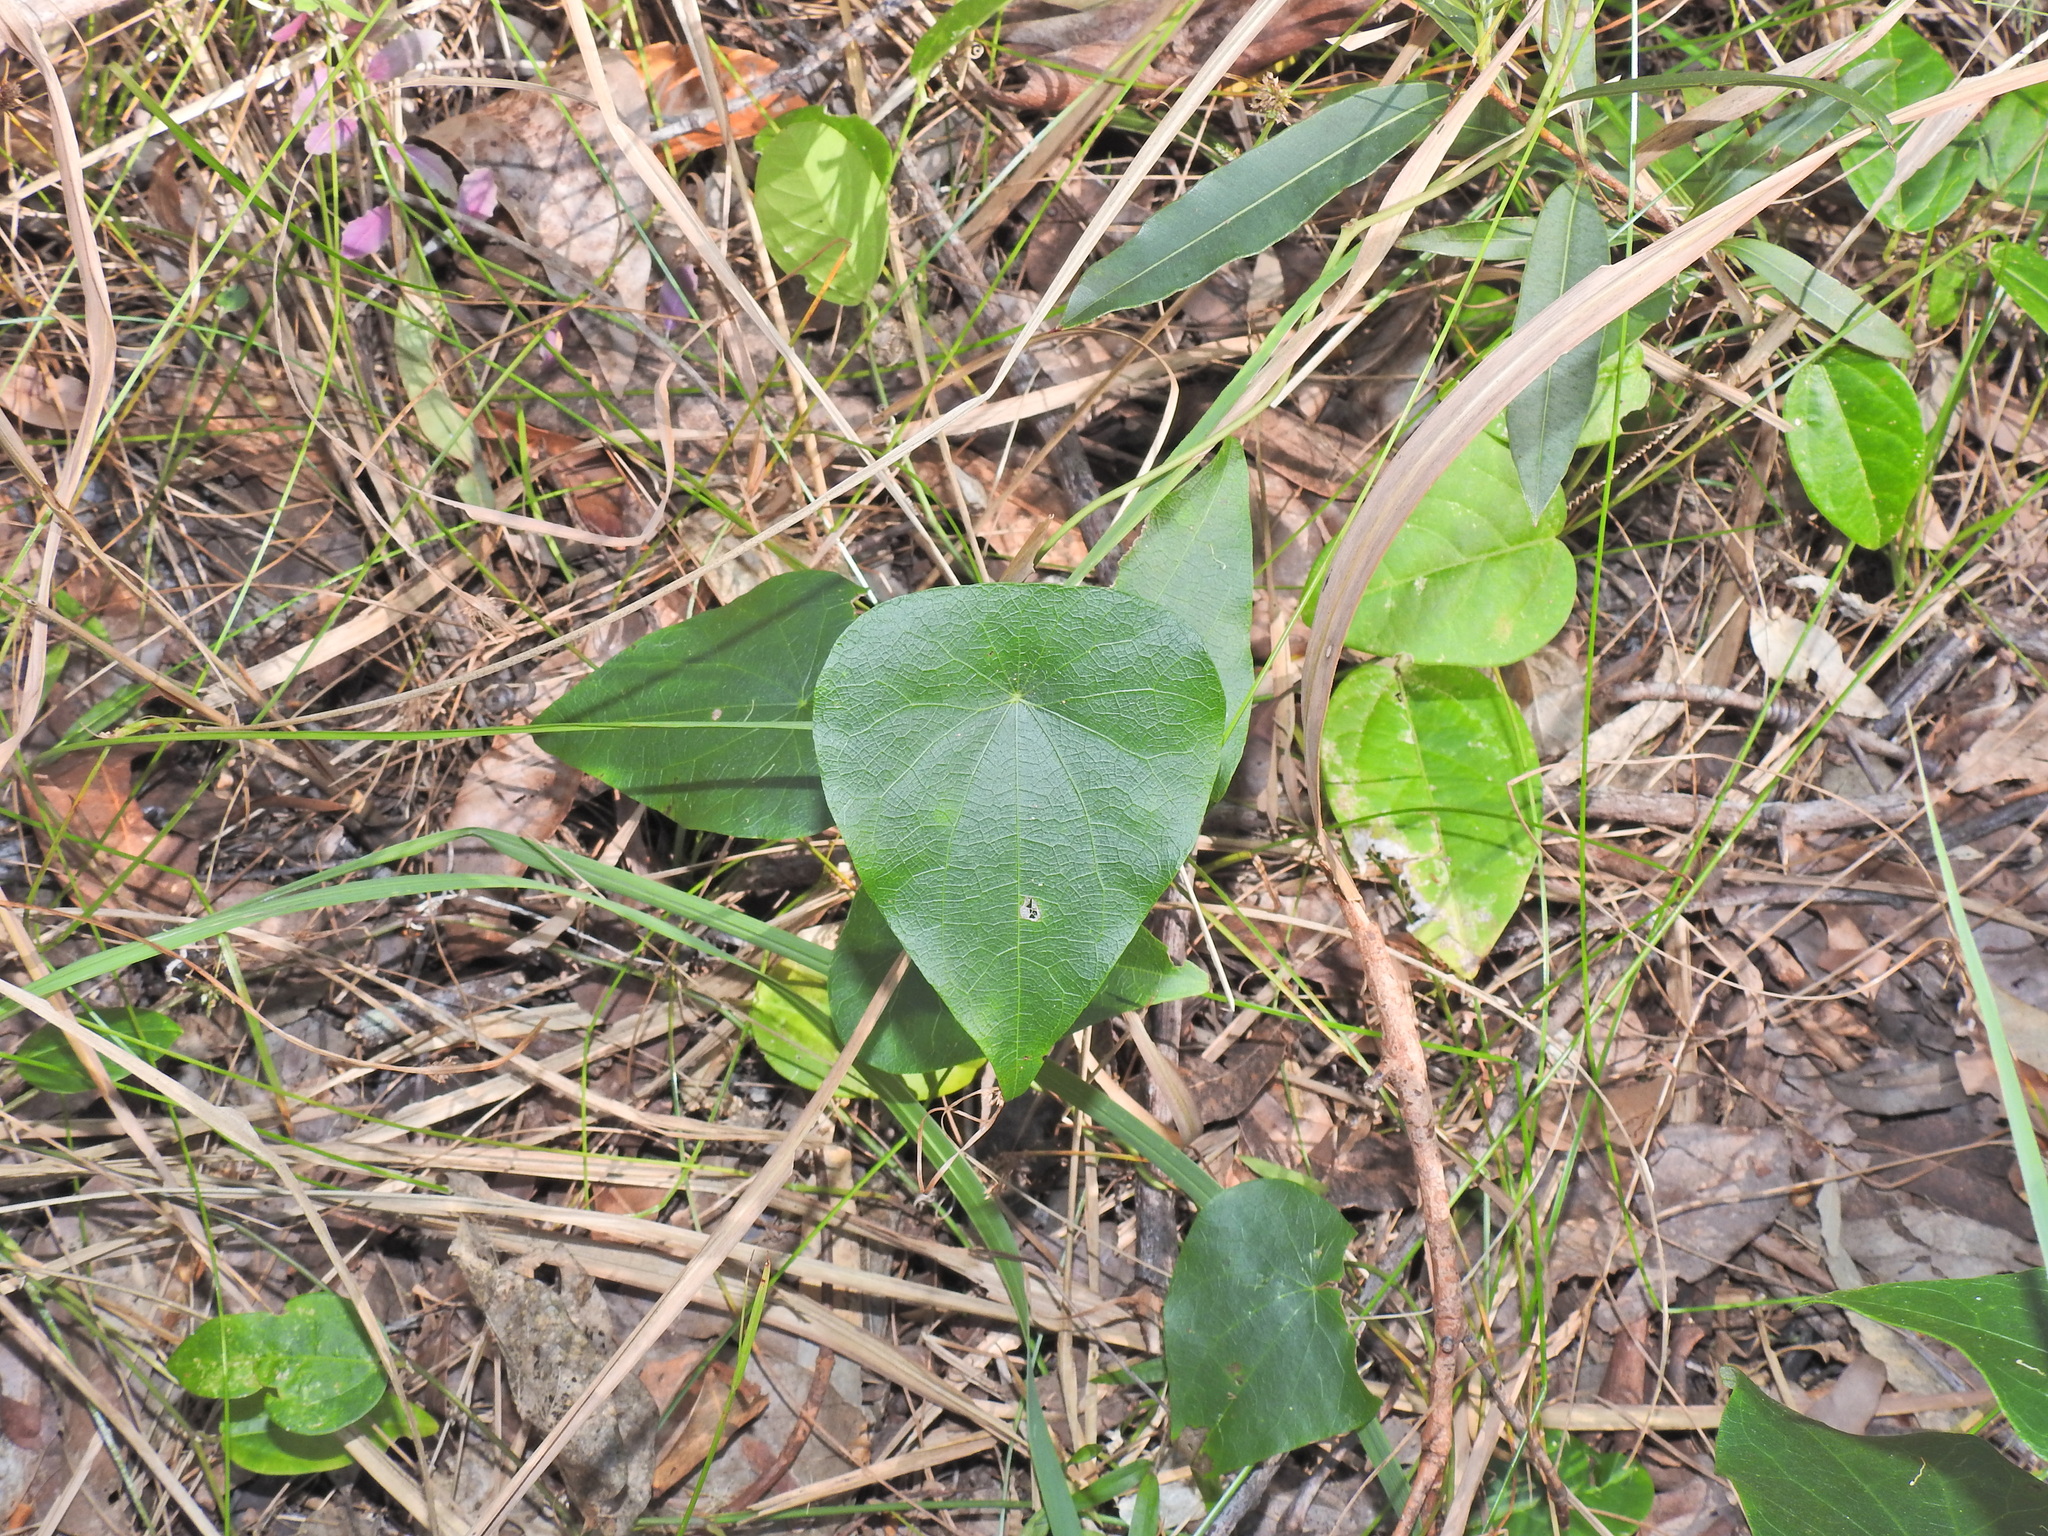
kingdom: Plantae
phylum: Tracheophyta
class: Magnoliopsida
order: Ranunculales
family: Menispermaceae
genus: Stephania
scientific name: Stephania japonica
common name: Snake vine
